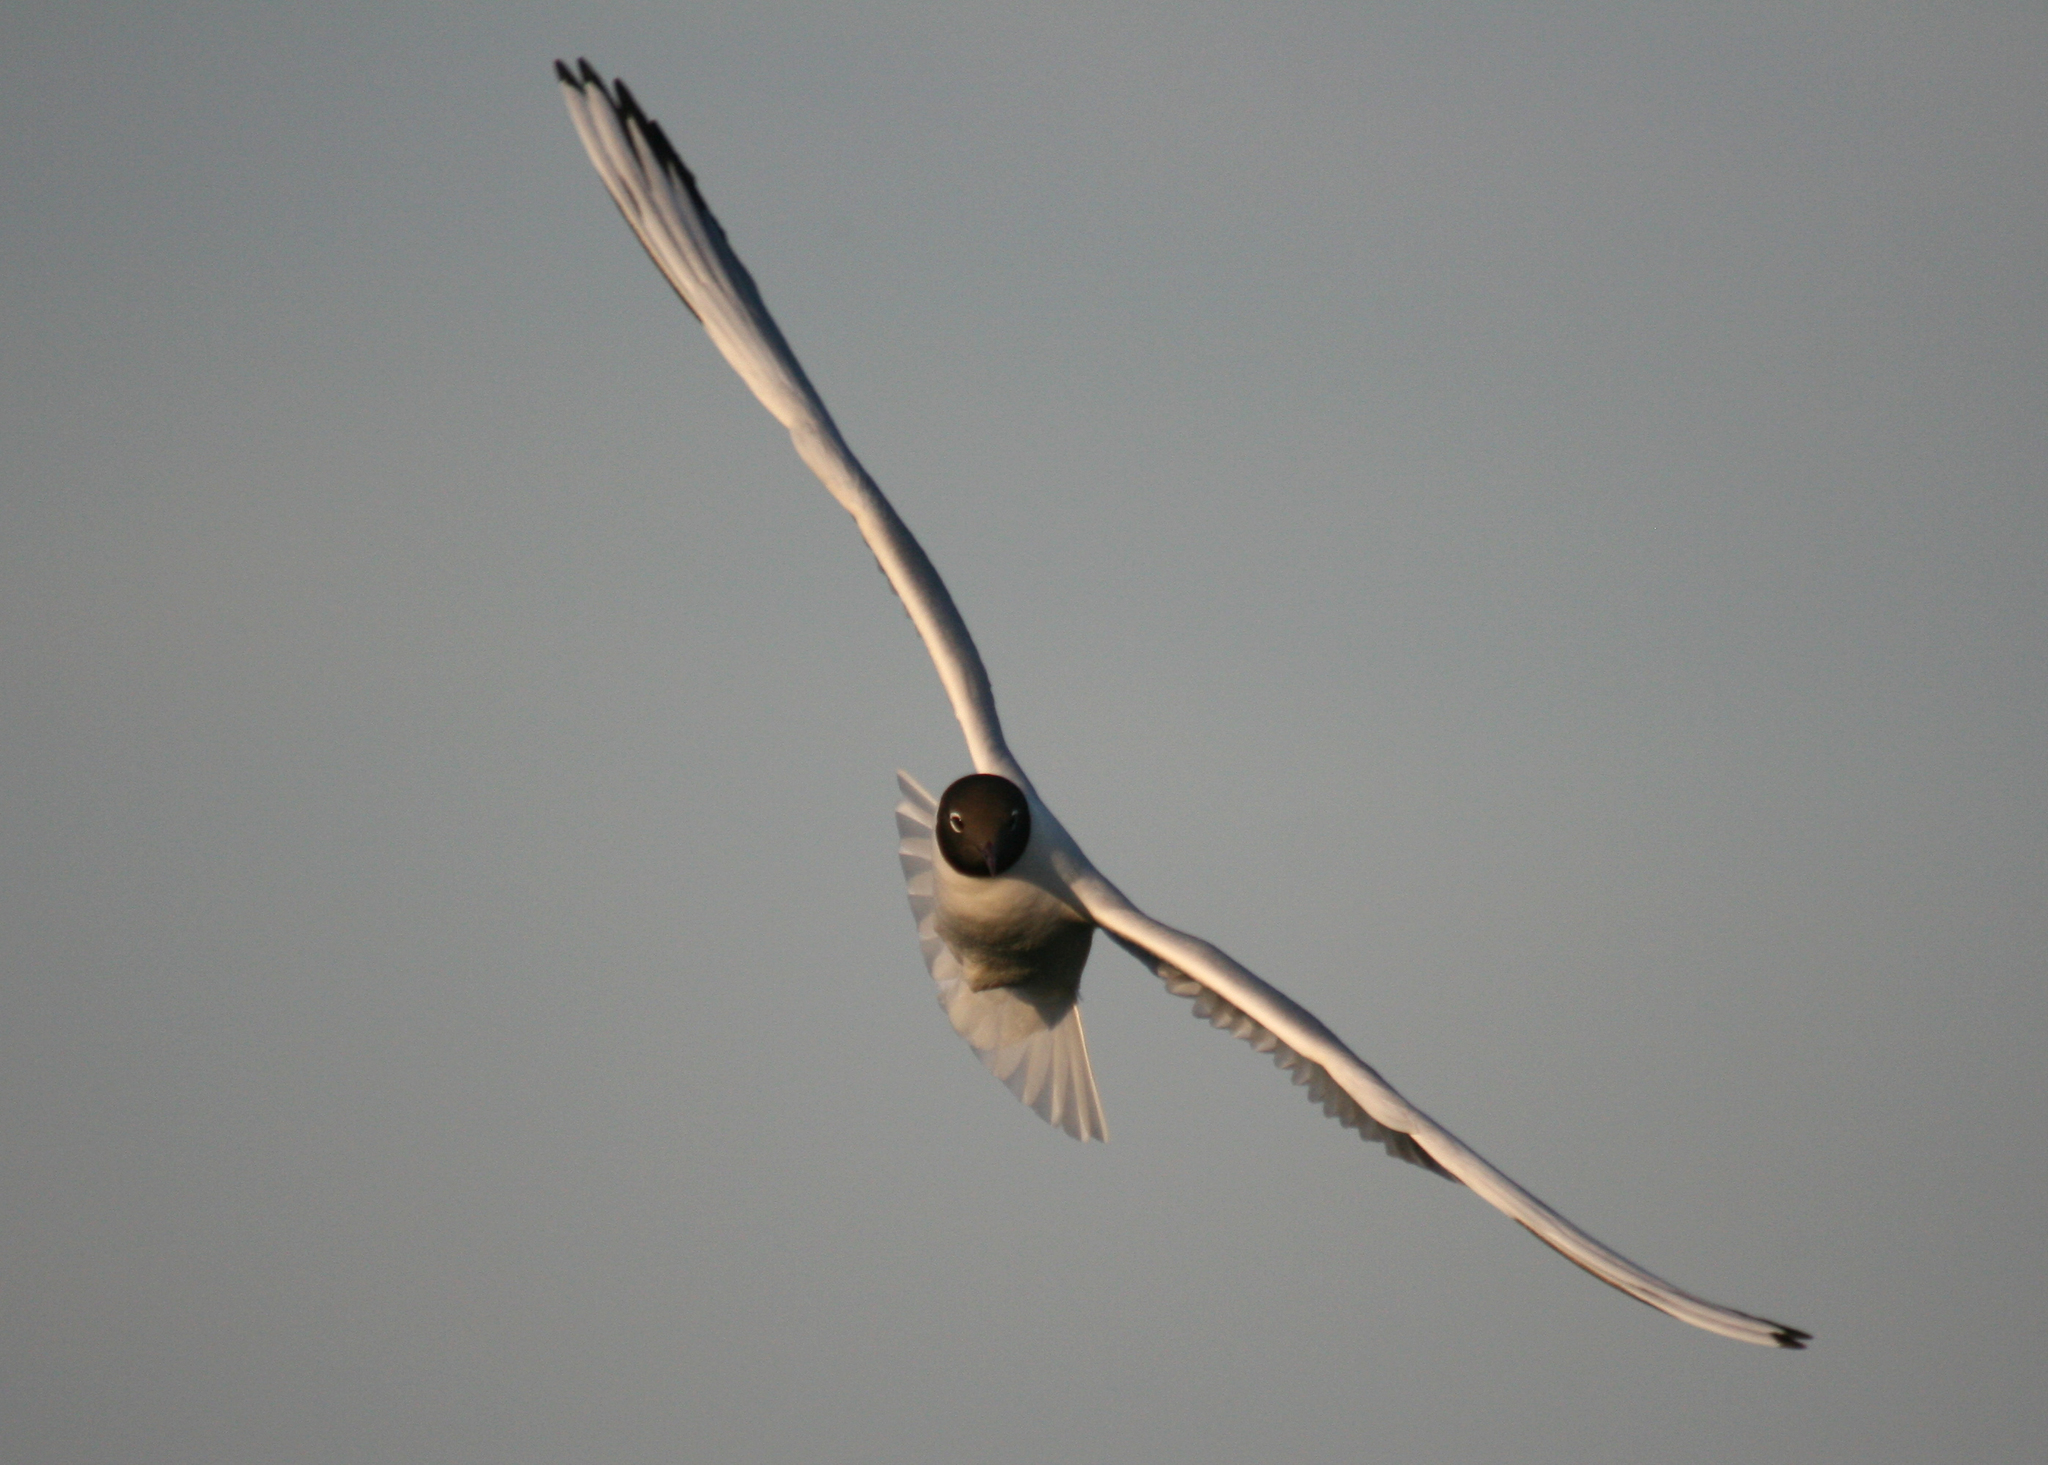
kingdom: Animalia
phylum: Chordata
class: Aves
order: Charadriiformes
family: Laridae
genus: Chroicocephalus
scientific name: Chroicocephalus ridibundus
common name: Black-headed gull
